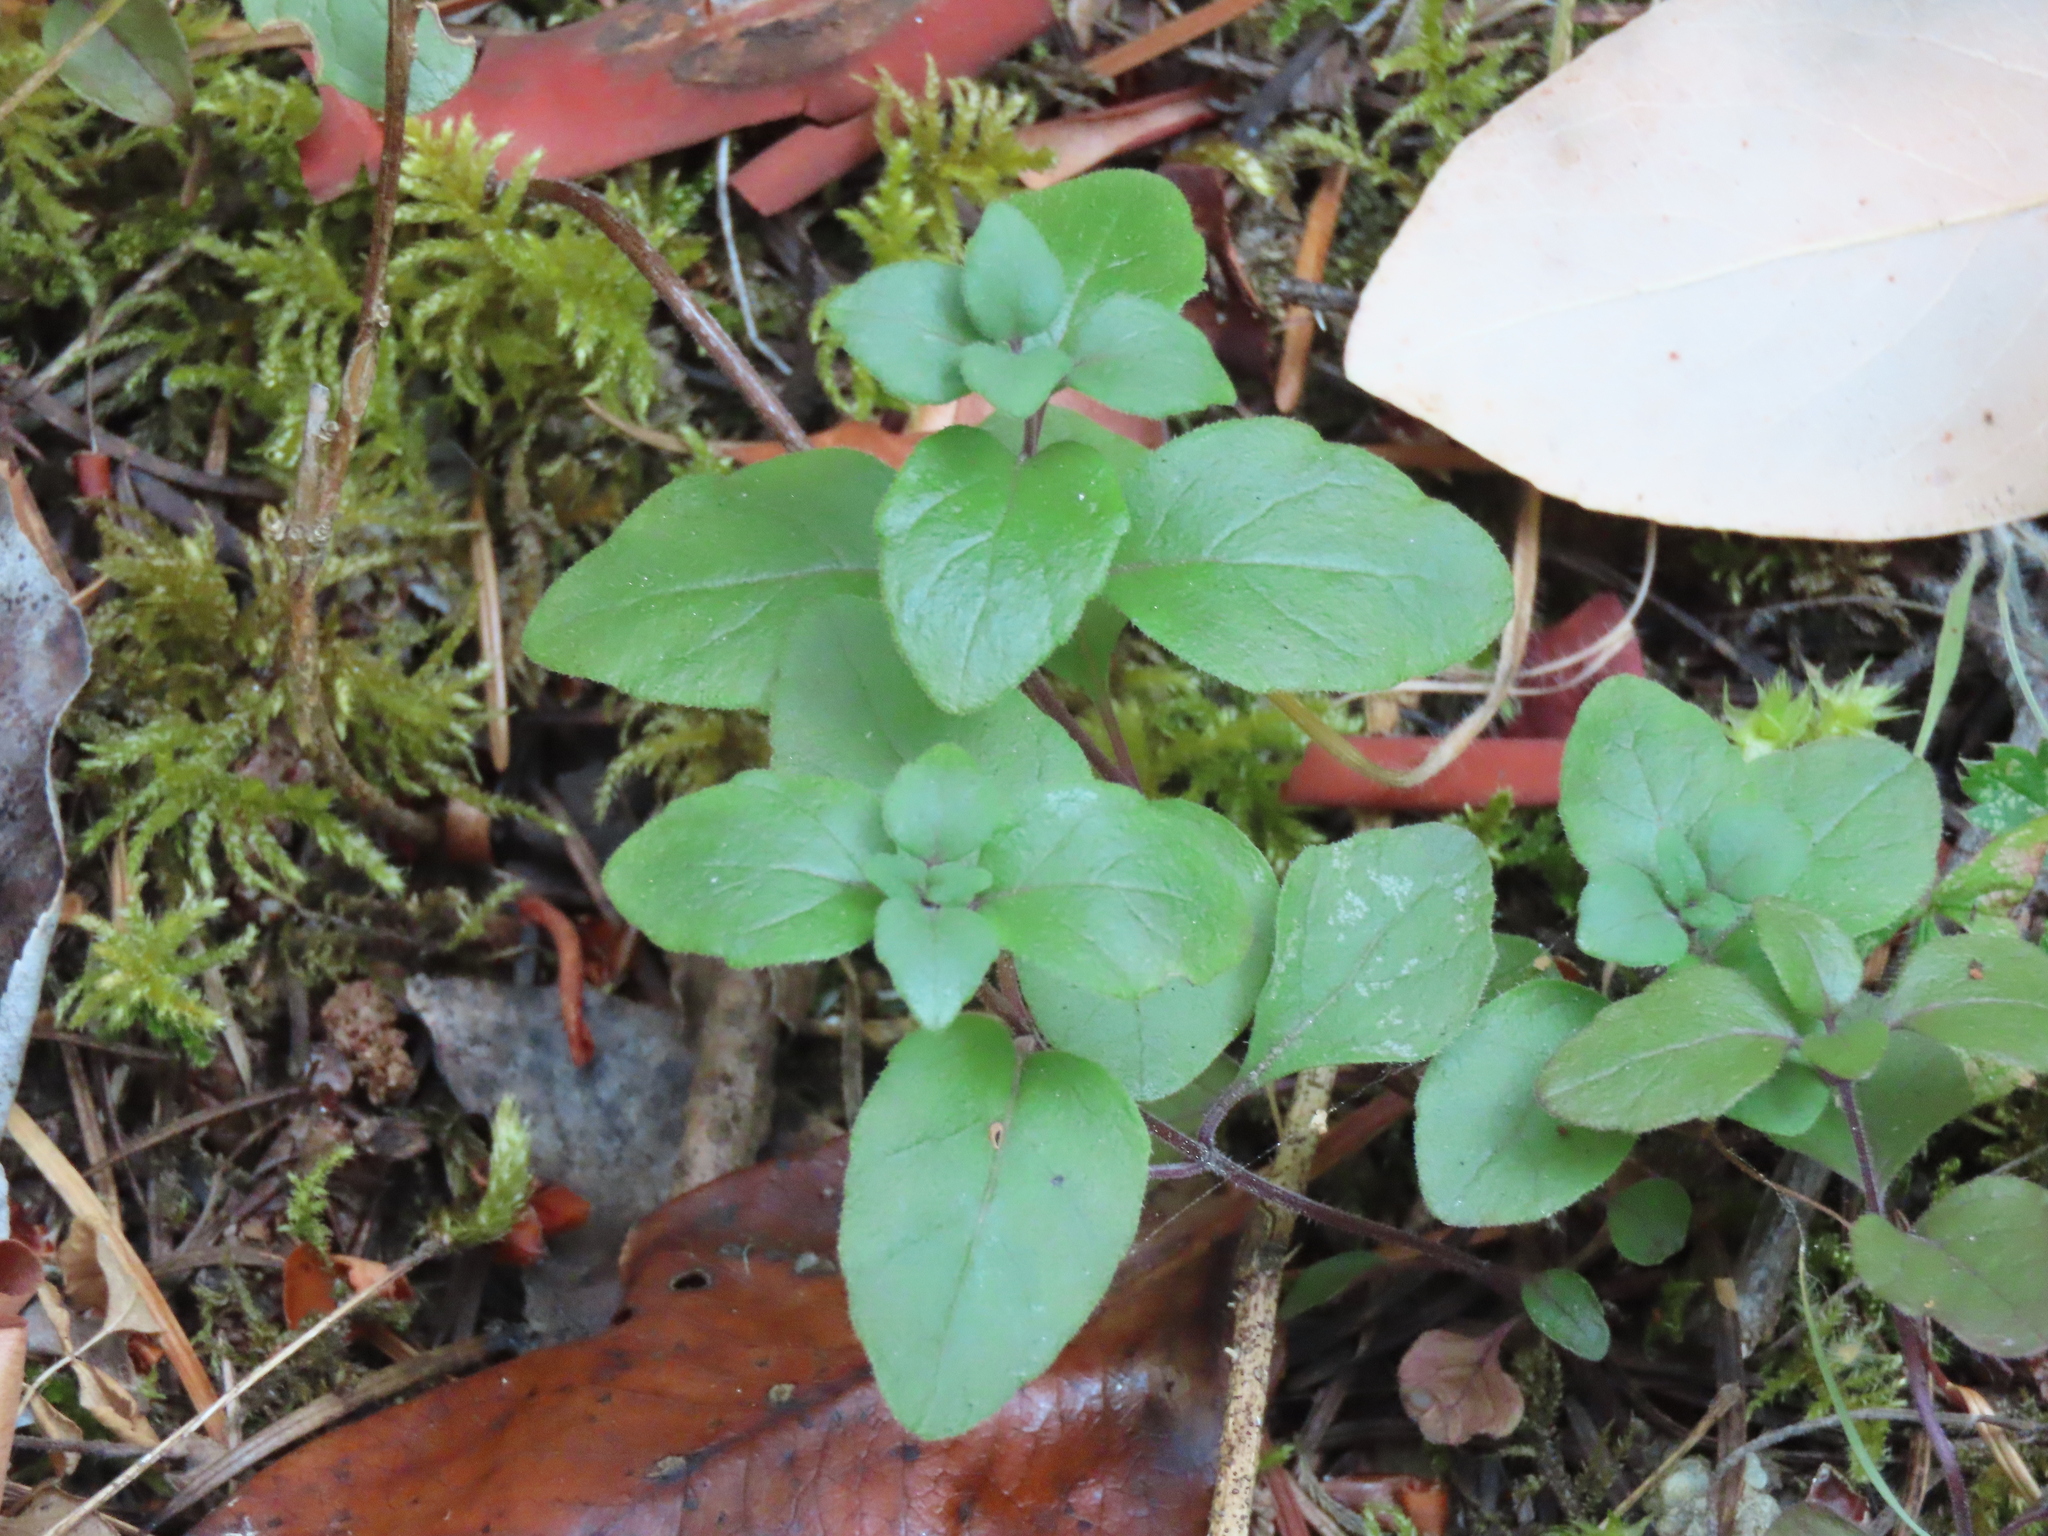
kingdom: Plantae
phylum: Tracheophyta
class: Magnoliopsida
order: Lamiales
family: Lamiaceae
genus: Micromeria
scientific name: Micromeria douglasii
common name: Yerba buena
